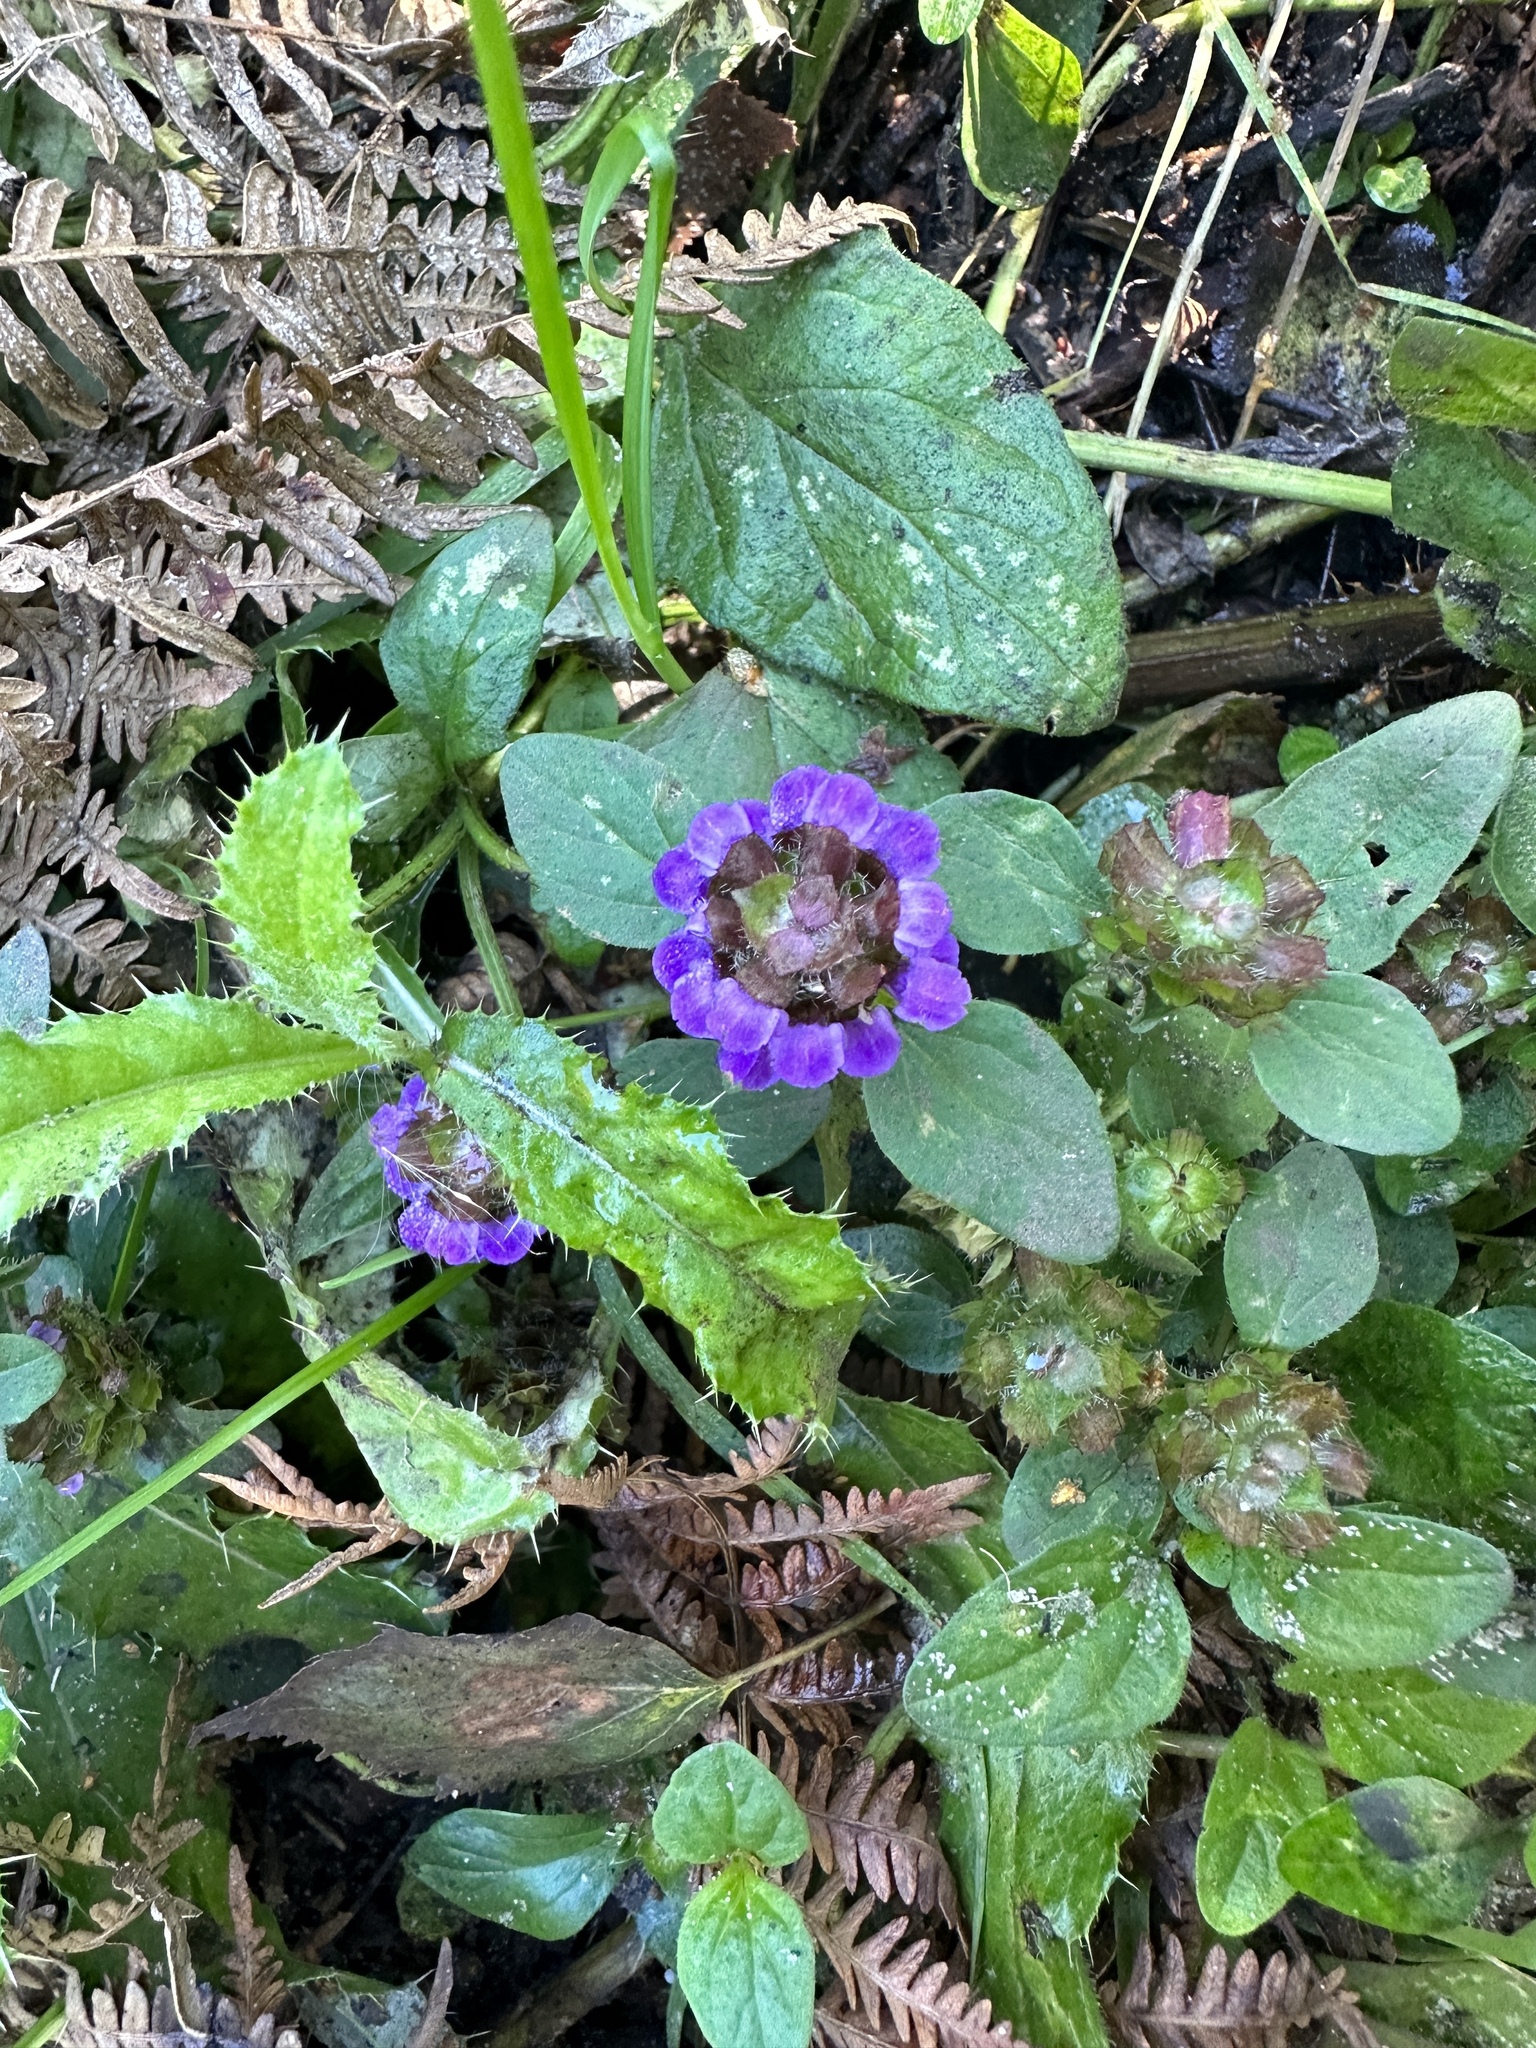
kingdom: Plantae
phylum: Tracheophyta
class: Magnoliopsida
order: Lamiales
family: Lamiaceae
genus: Prunella
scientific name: Prunella vulgaris
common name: Heal-all
